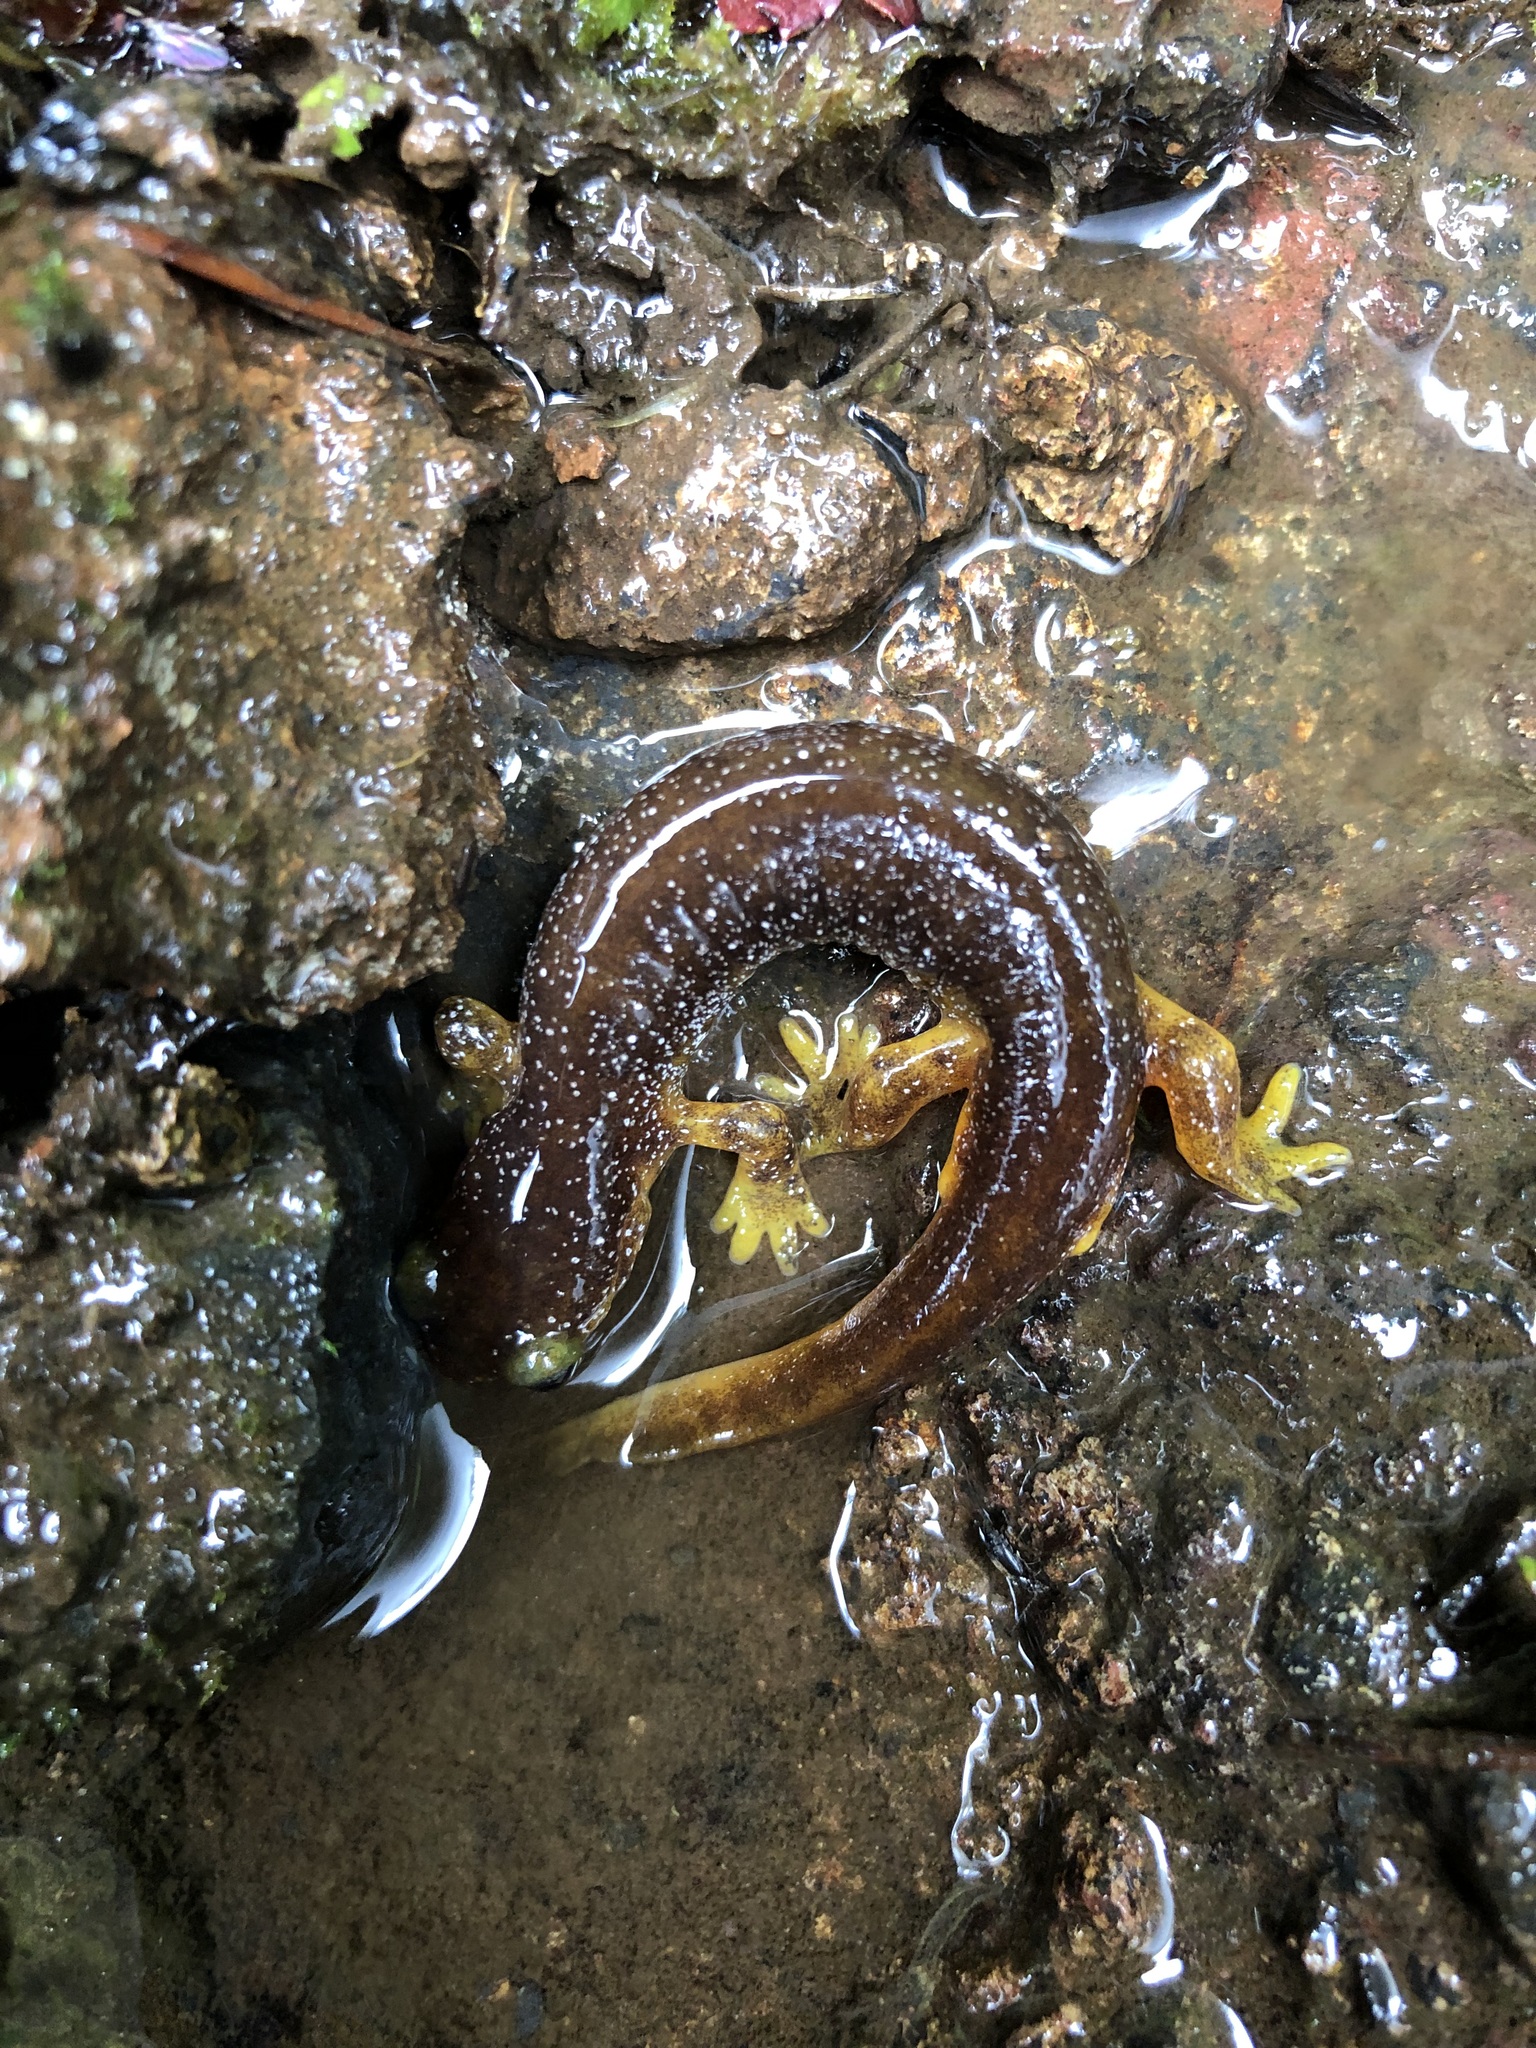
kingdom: Animalia
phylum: Chordata
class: Amphibia
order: Caudata
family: Rhyacotritonidae
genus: Rhyacotriton
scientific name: Rhyacotriton kezeri
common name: Columbia torrent salamander
